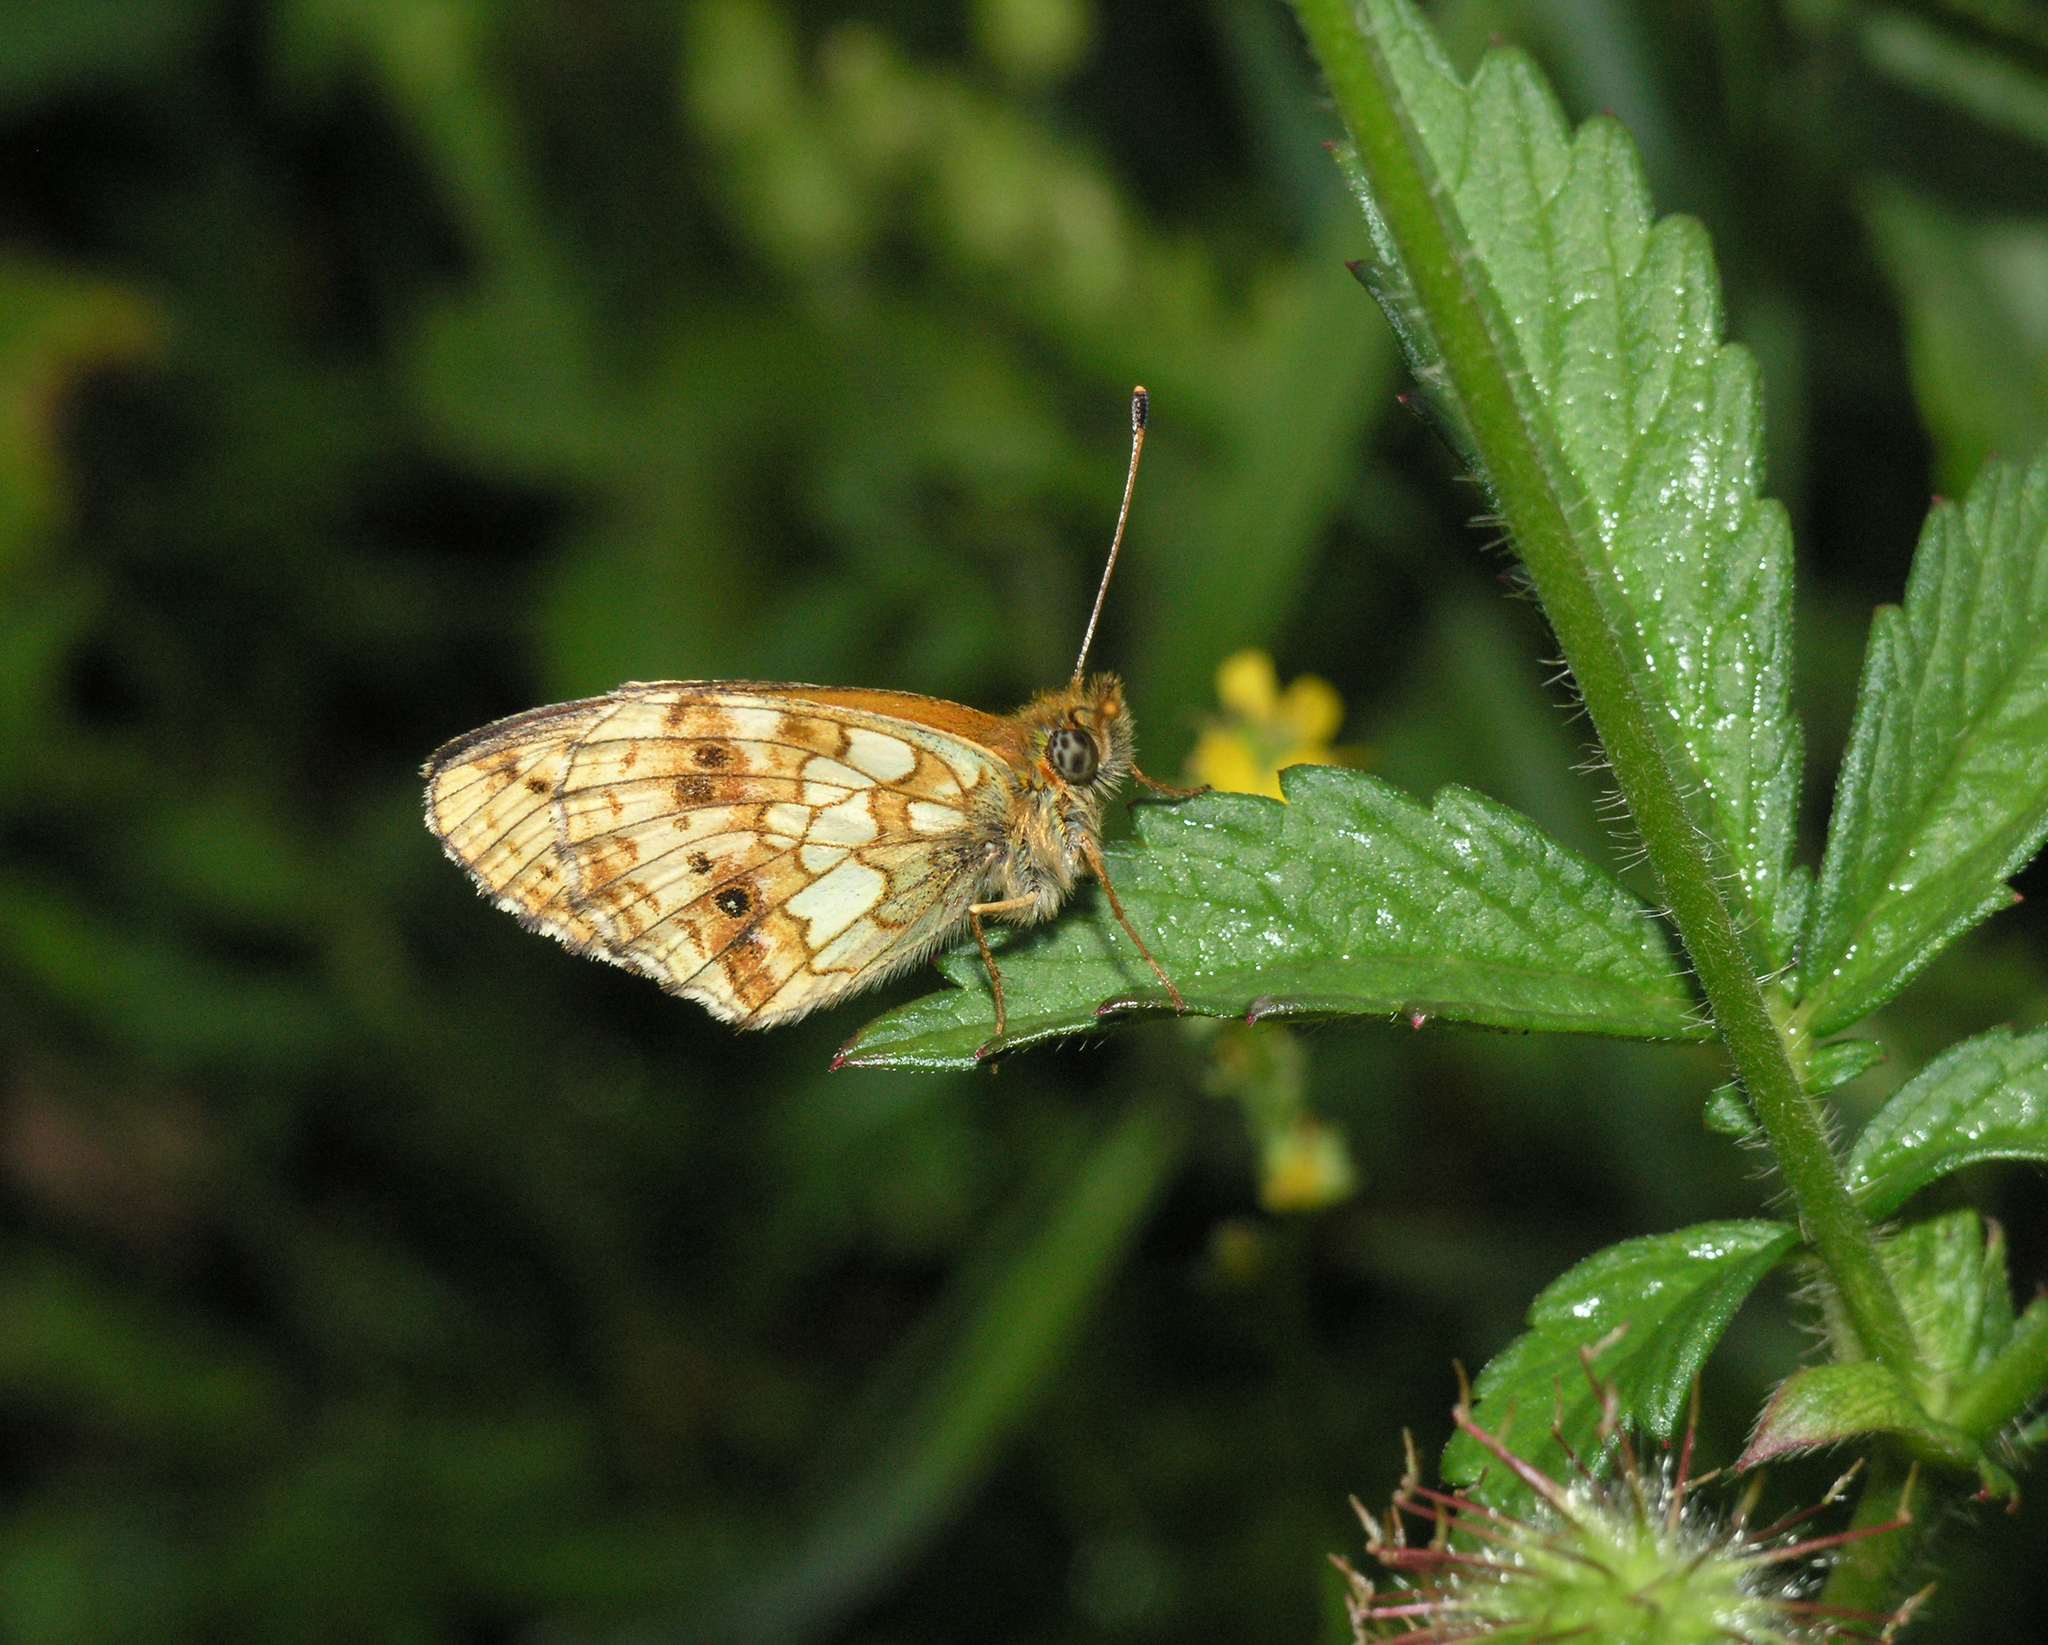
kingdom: Animalia
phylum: Arthropoda
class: Insecta
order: Lepidoptera
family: Nymphalidae
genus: Brenthis
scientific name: Brenthis ino
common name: Lesser marbled fritillary
